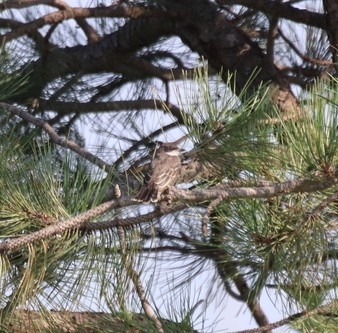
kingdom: Animalia
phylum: Chordata
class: Aves
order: Passeriformes
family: Tyrannidae
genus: Tyrannus
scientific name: Tyrannus tyrannus
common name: Eastern kingbird
